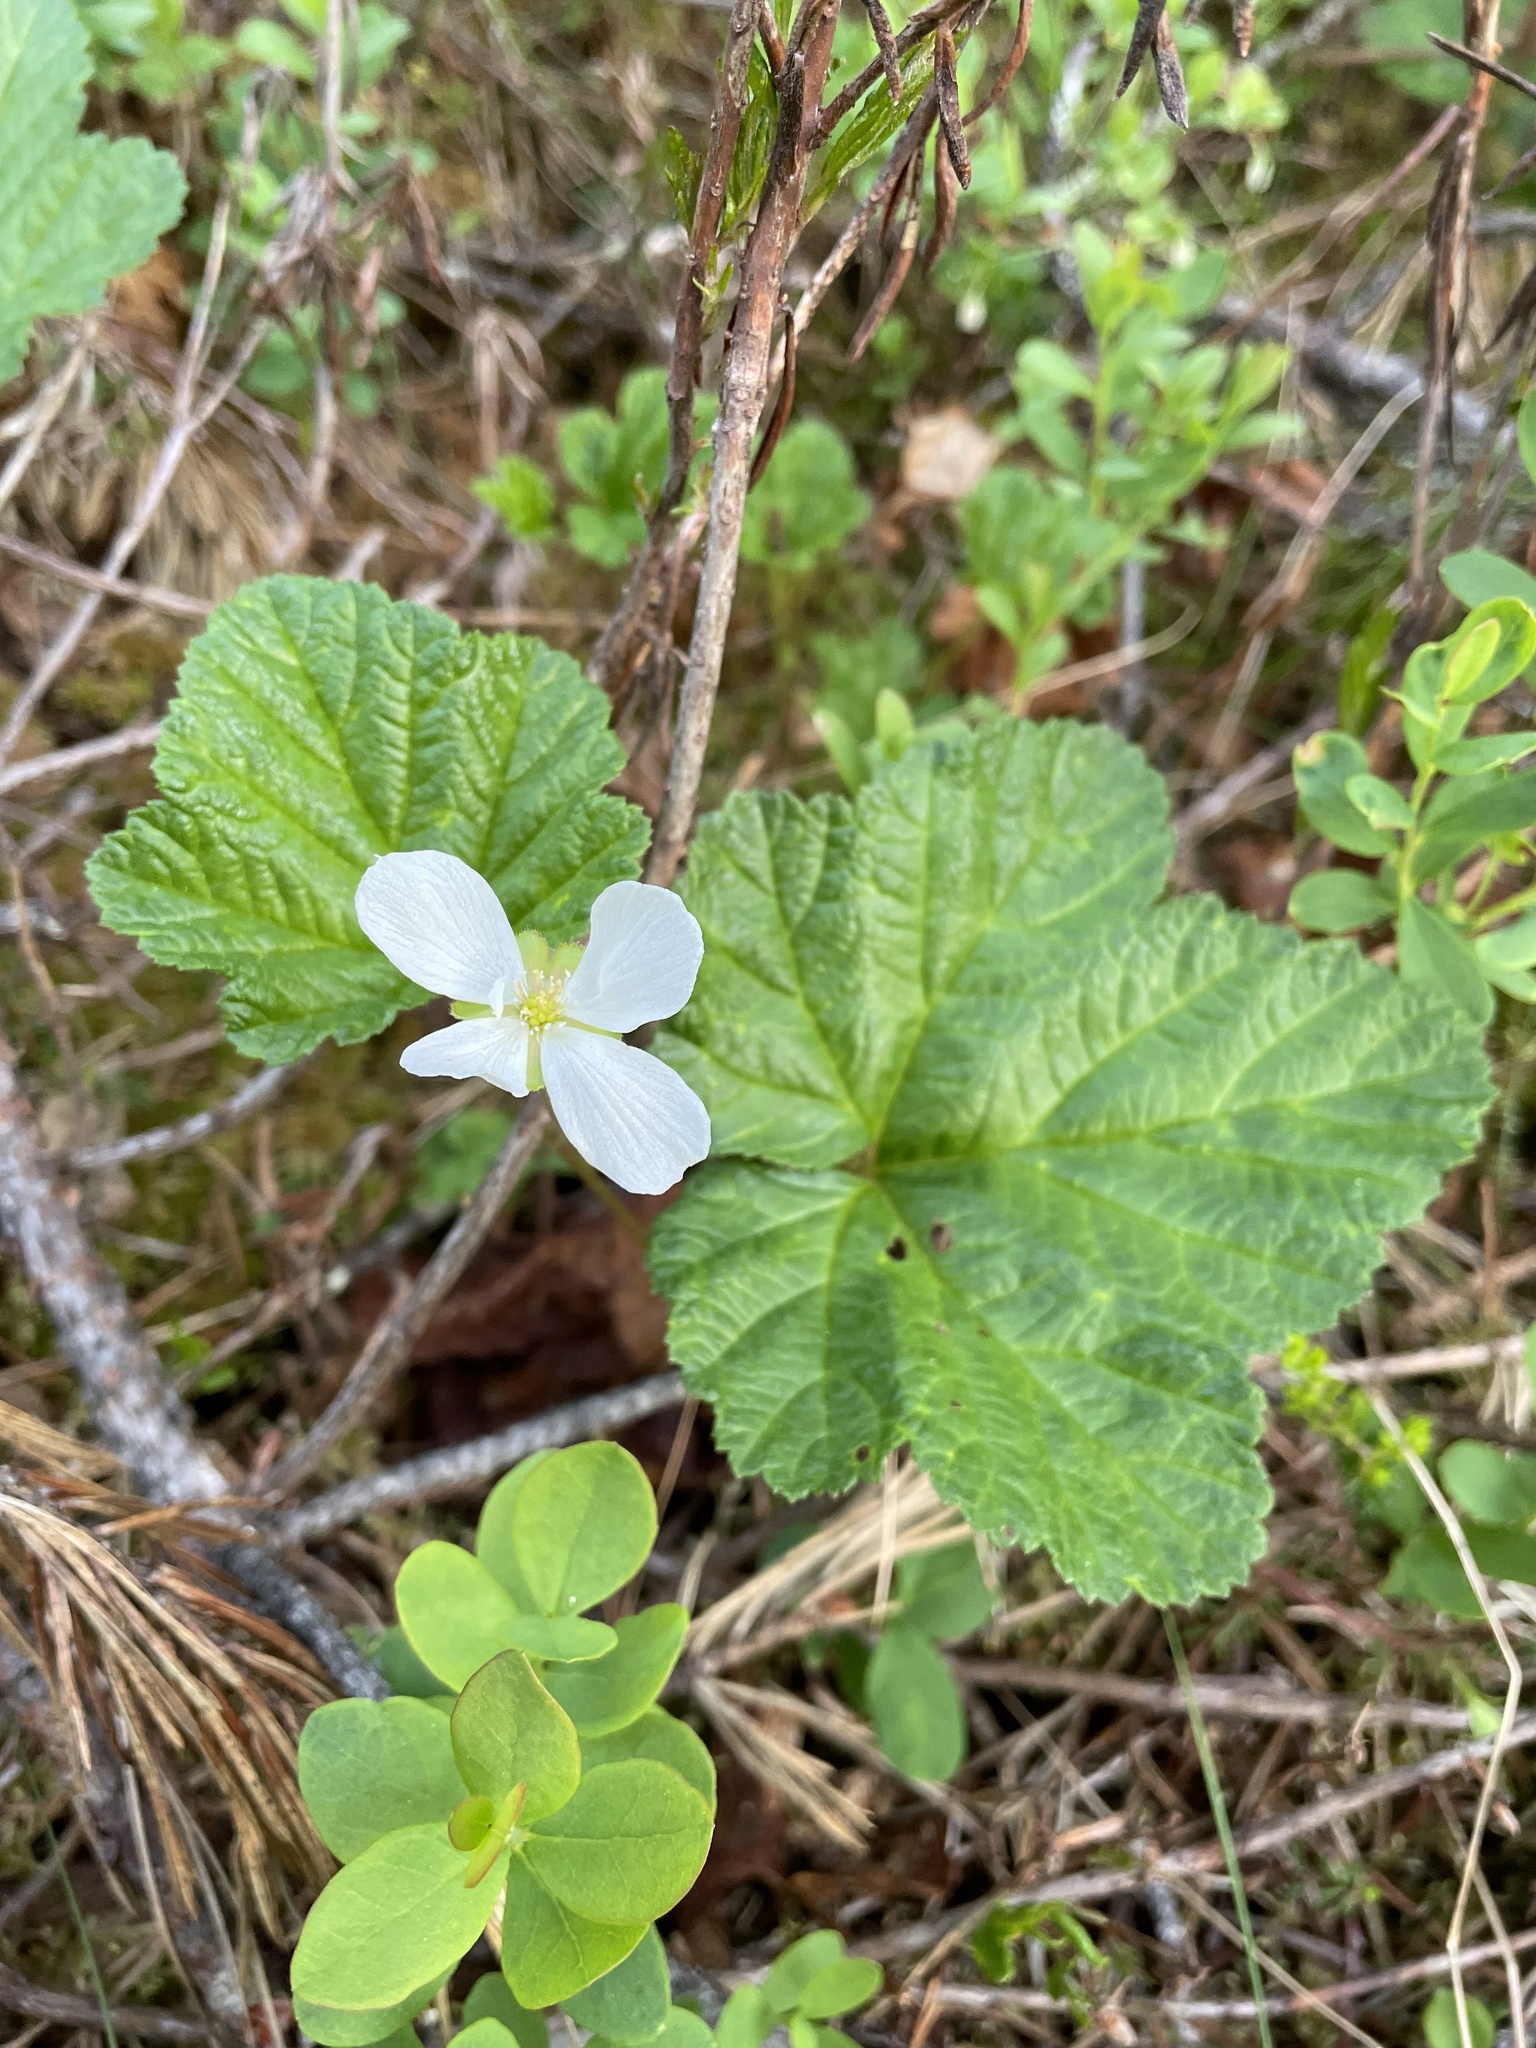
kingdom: Plantae
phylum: Tracheophyta
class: Magnoliopsida
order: Rosales
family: Rosaceae
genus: Rubus
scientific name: Rubus chamaemorus
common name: Cloudberry
